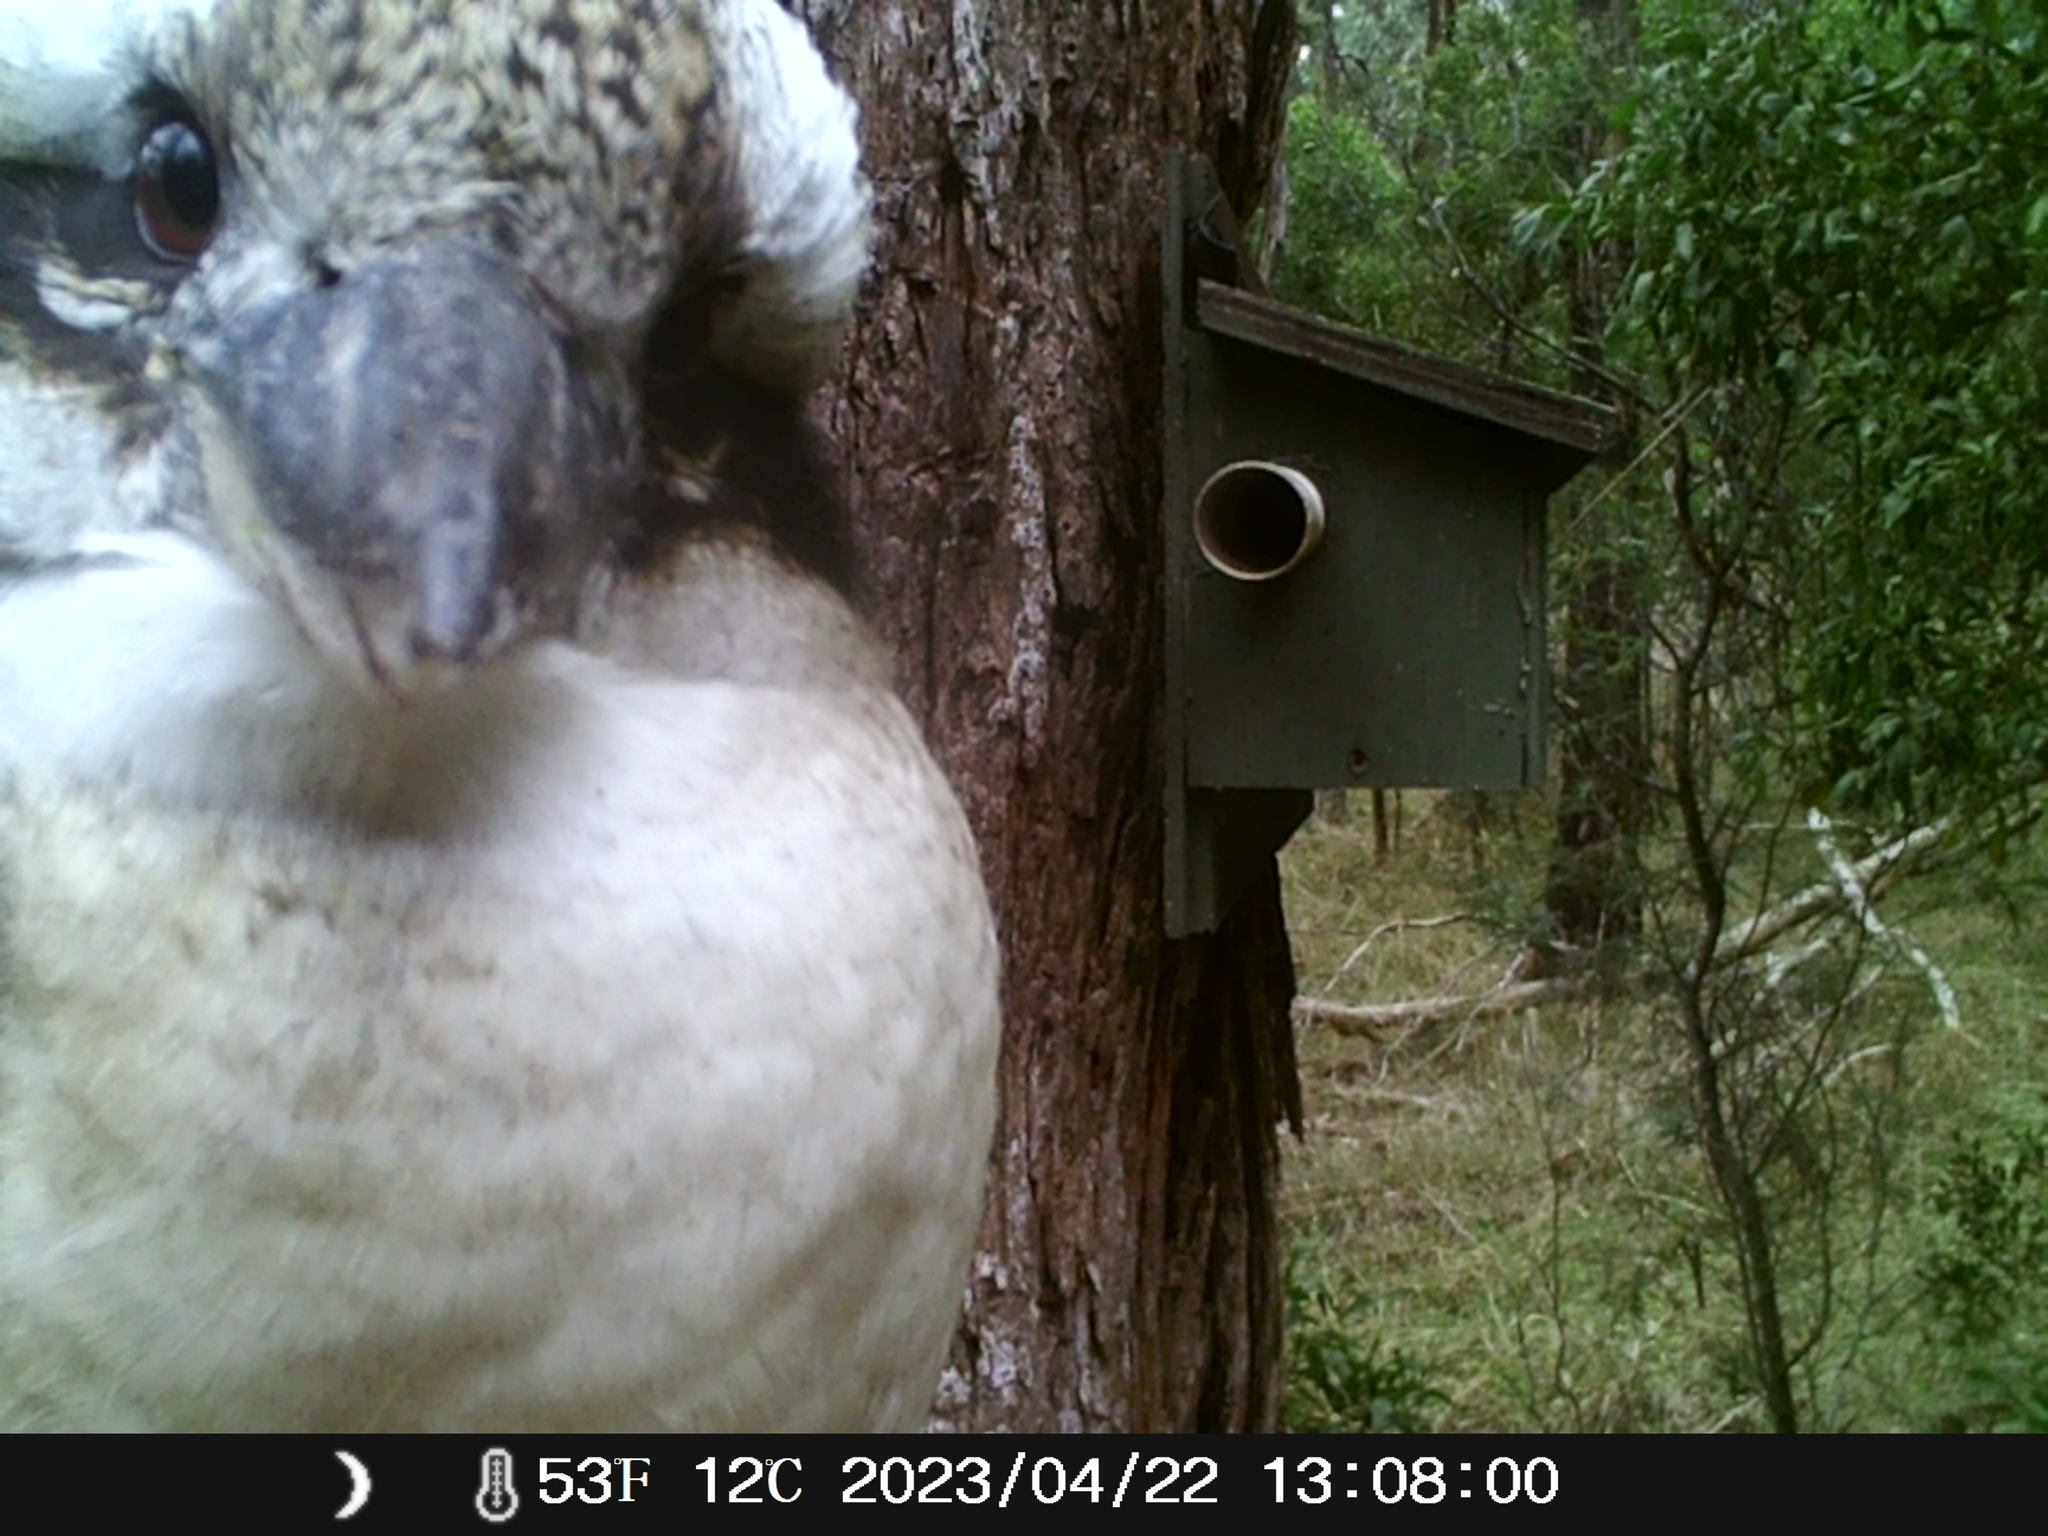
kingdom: Animalia
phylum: Chordata
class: Aves
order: Coraciiformes
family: Alcedinidae
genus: Dacelo
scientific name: Dacelo novaeguineae
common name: Laughing kookaburra
